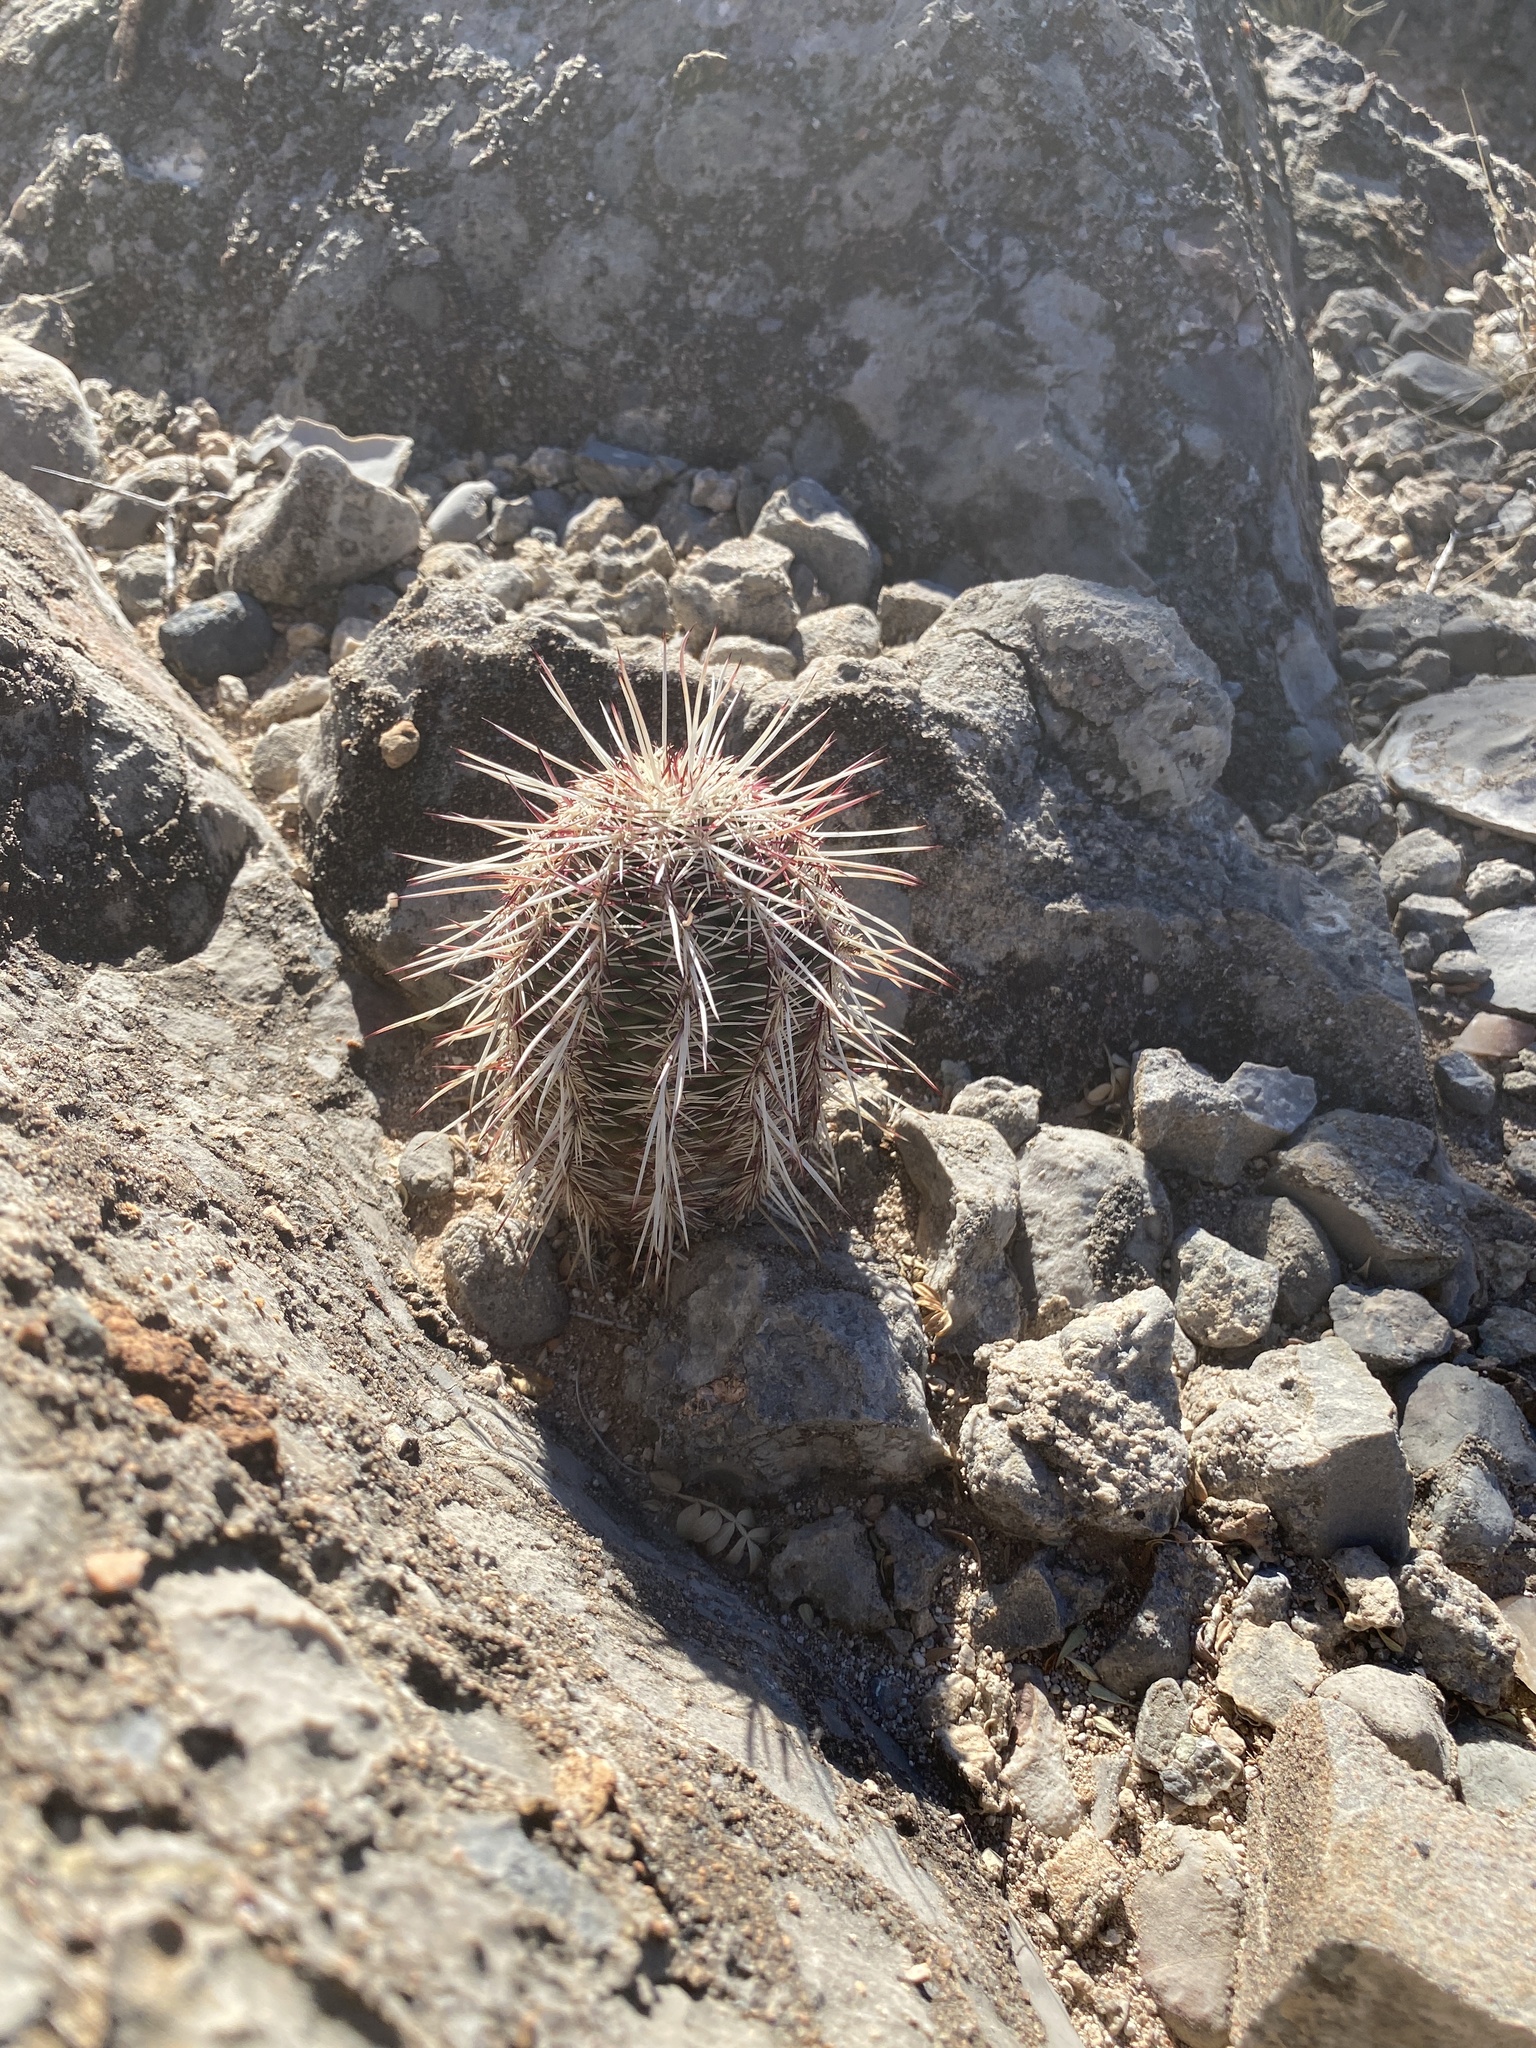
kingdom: Plantae
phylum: Tracheophyta
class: Magnoliopsida
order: Caryophyllales
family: Cactaceae
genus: Echinocereus
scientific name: Echinocereus viridiflorus
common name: Nylon hedgehog cactus
